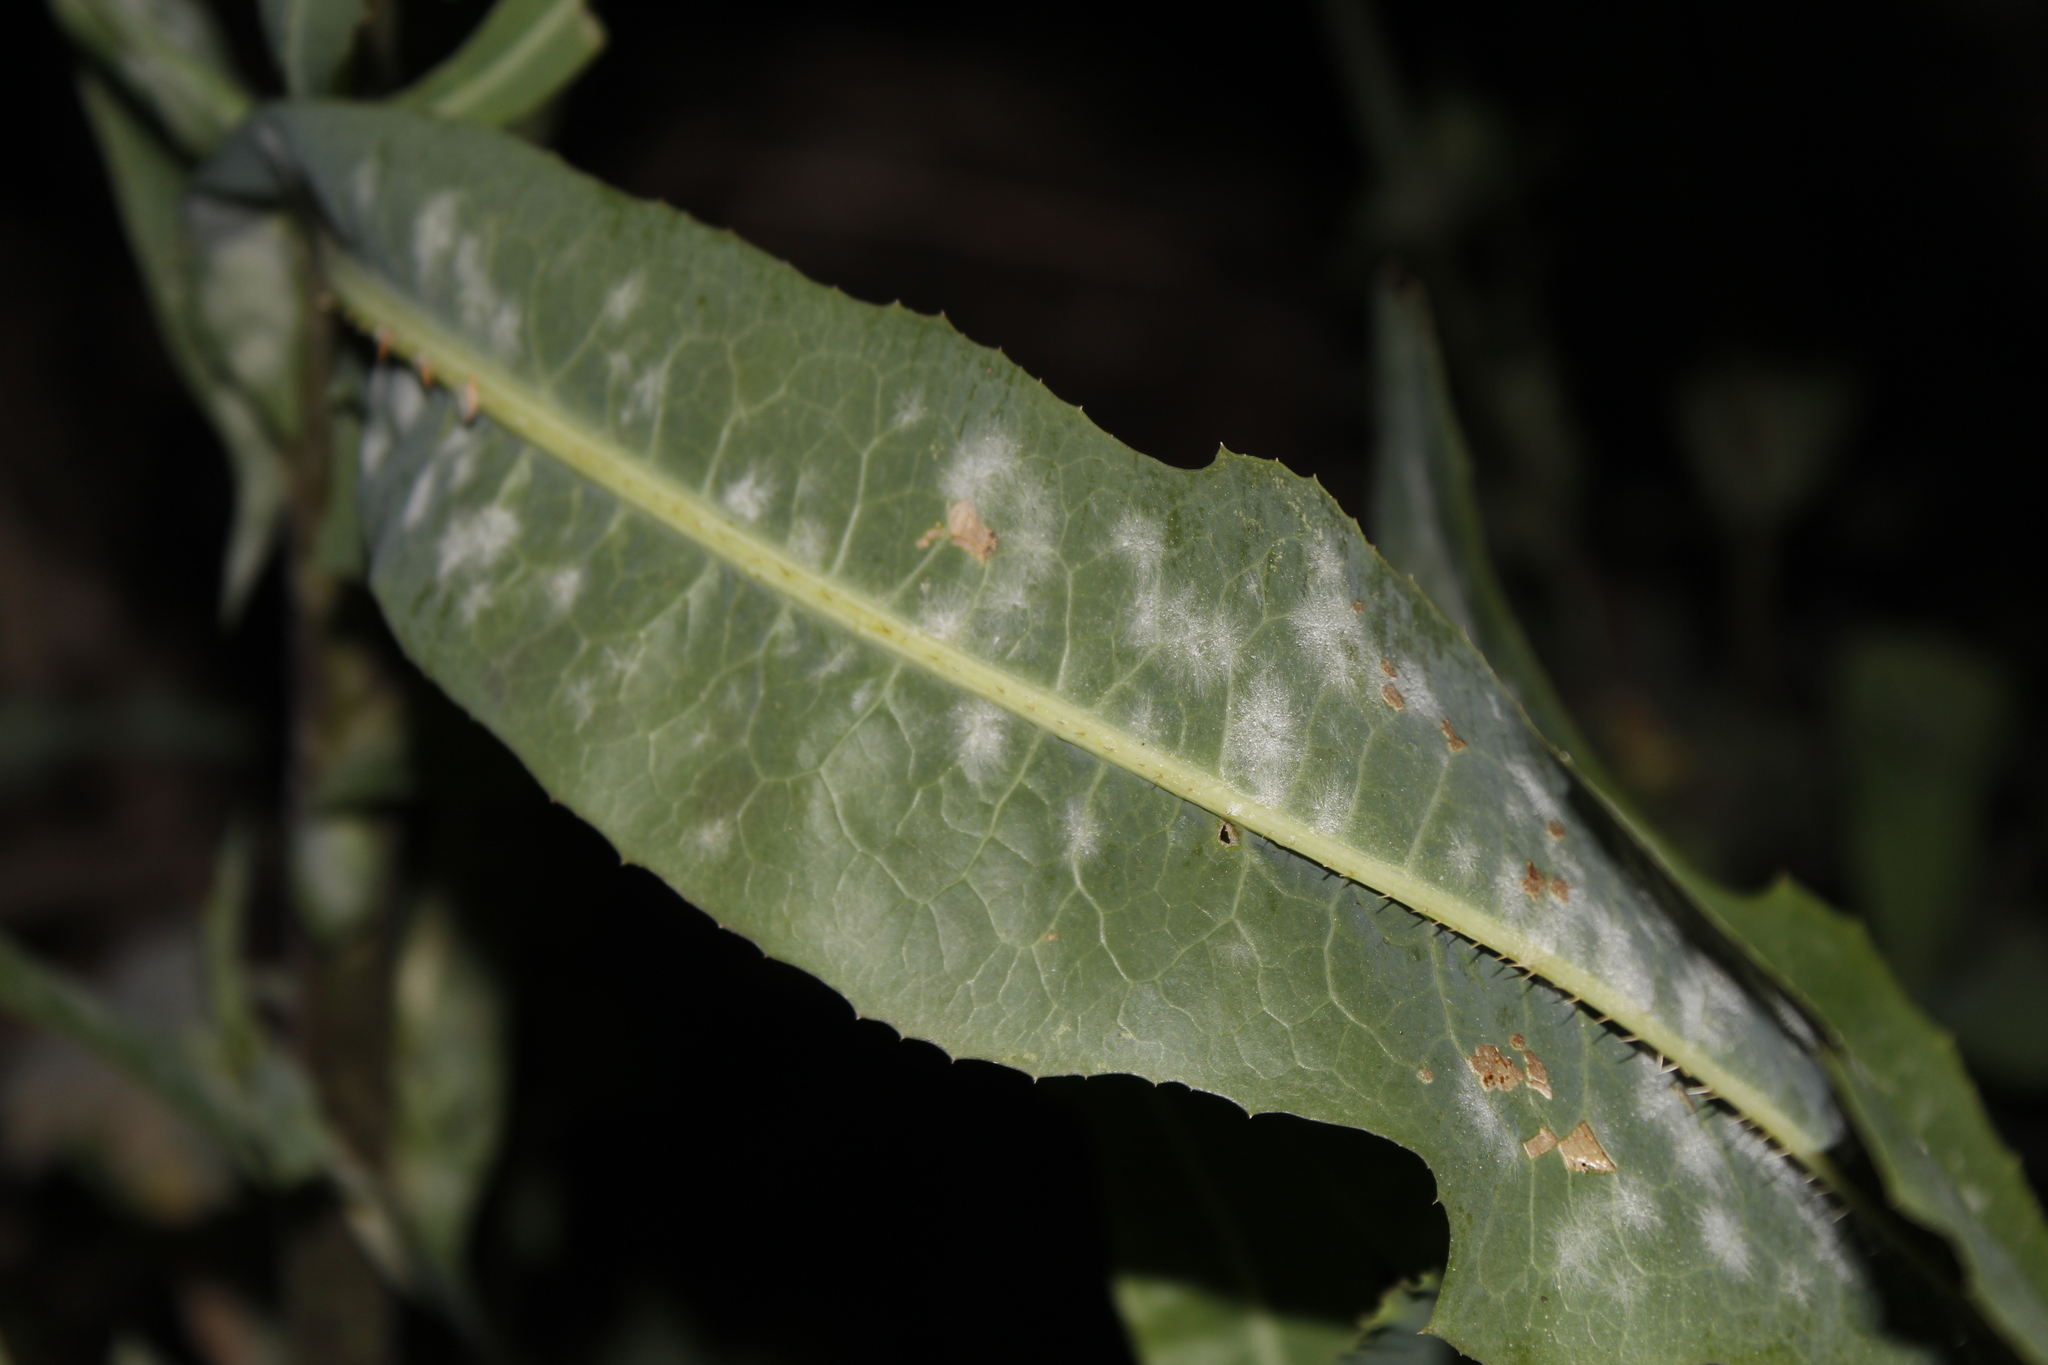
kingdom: Fungi
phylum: Ascomycota
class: Leotiomycetes
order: Helotiales
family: Erysiphaceae
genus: Golovinomyces
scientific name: Golovinomyces bolayi
